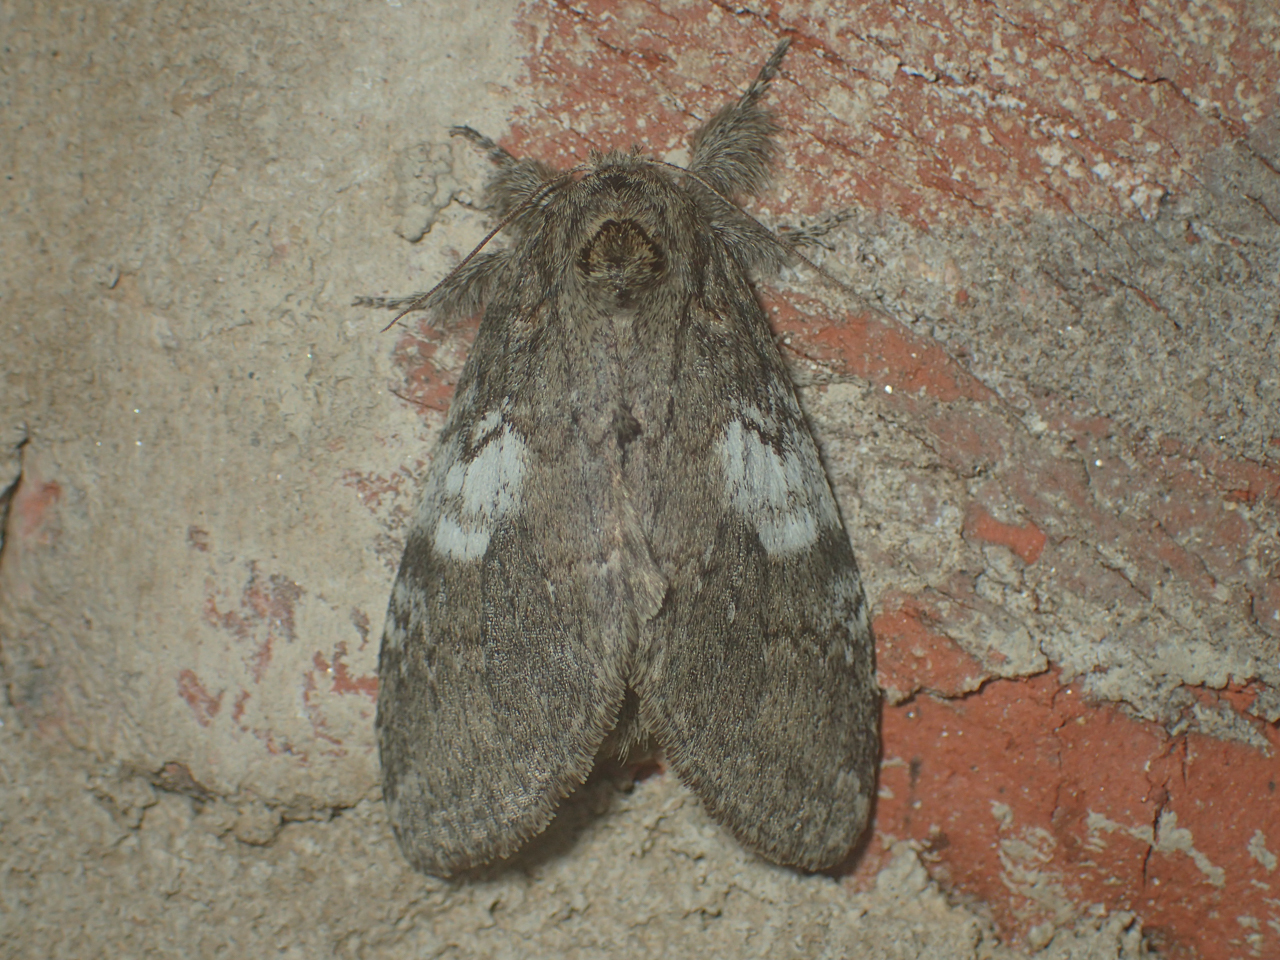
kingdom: Animalia
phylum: Arthropoda
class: Insecta
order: Lepidoptera
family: Notodontidae
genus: Peridea
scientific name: Peridea angulosa
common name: Angulose prominent
